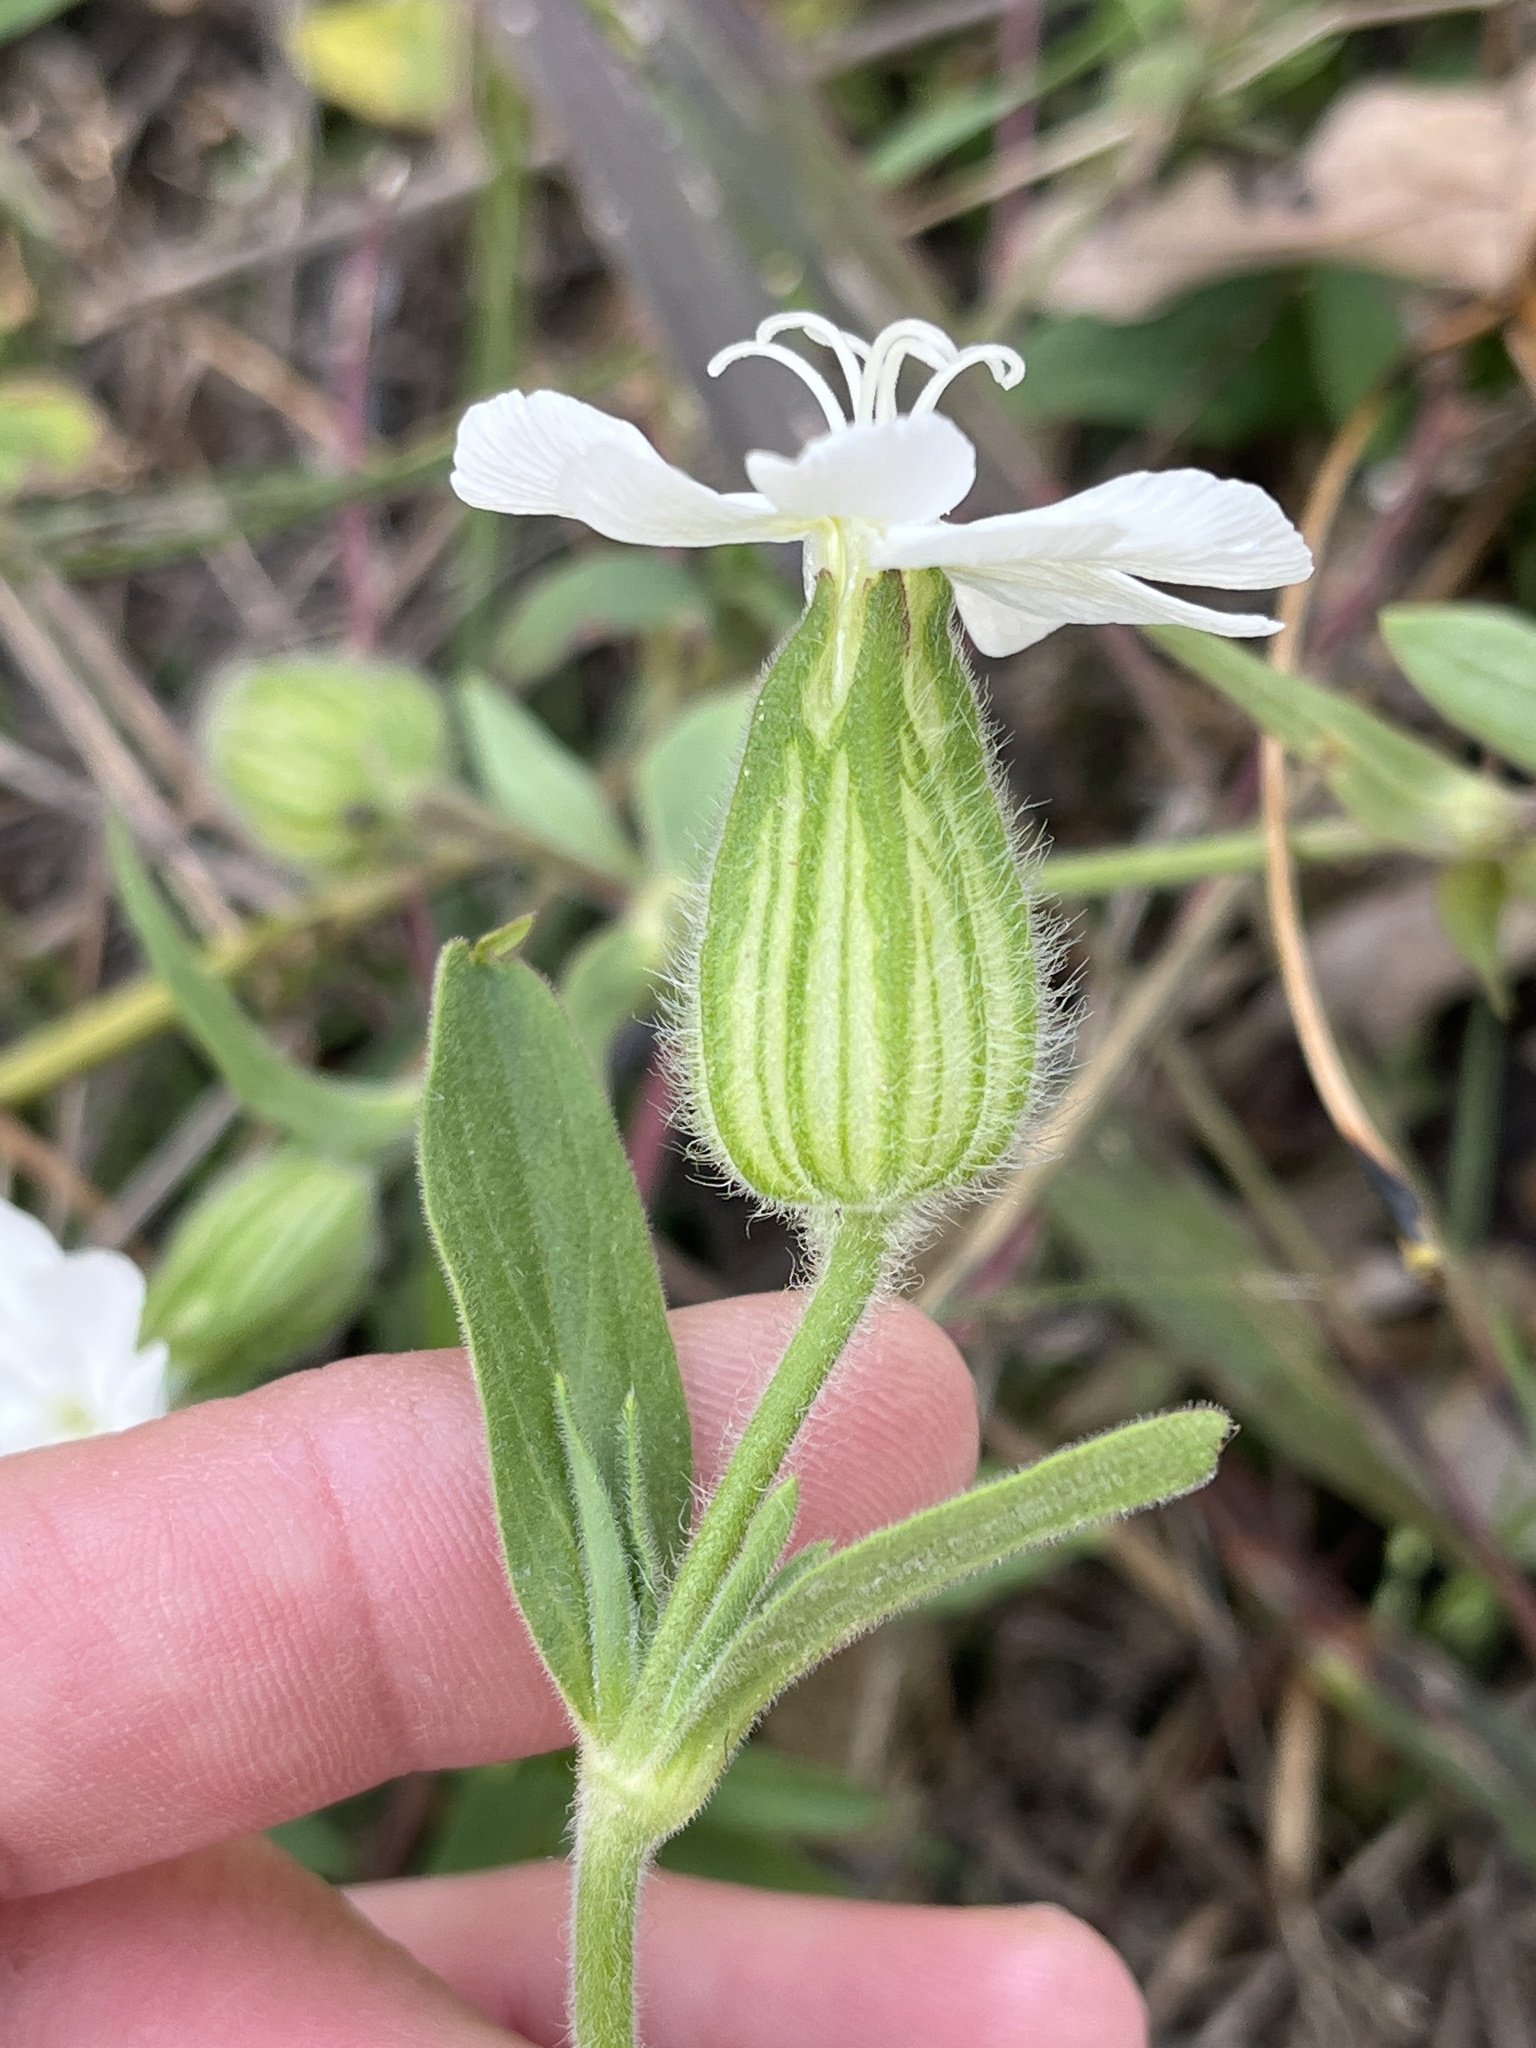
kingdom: Plantae
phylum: Tracheophyta
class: Magnoliopsida
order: Caryophyllales
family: Caryophyllaceae
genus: Silene
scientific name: Silene latifolia
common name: White campion
